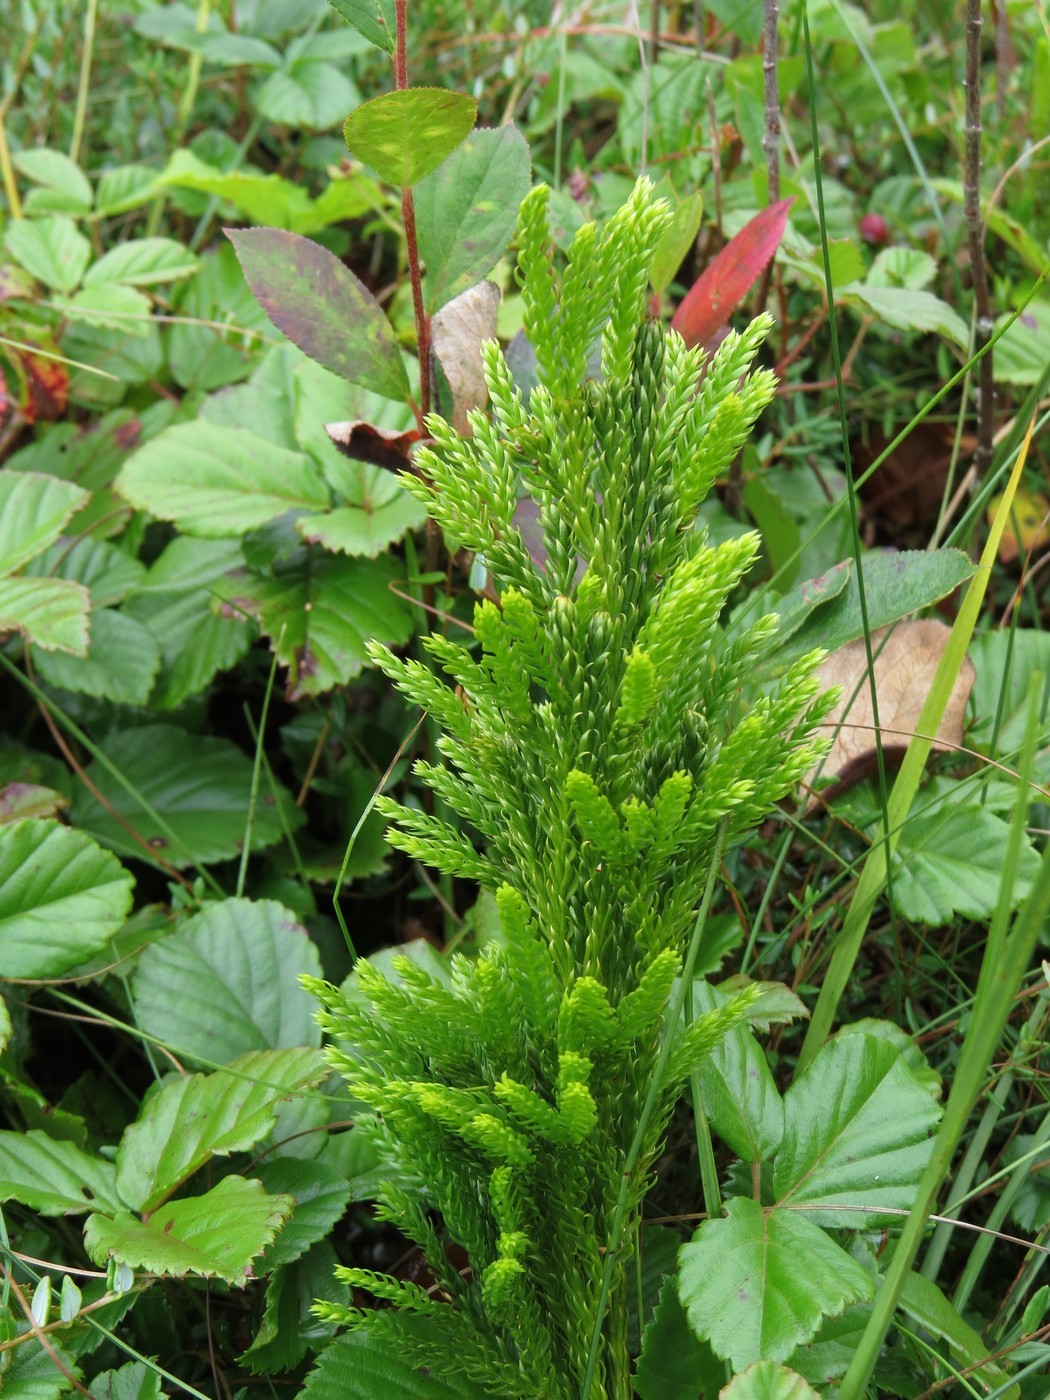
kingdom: Plantae
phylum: Tracheophyta
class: Lycopodiopsida
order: Lycopodiales
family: Lycopodiaceae
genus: Dendrolycopodium
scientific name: Dendrolycopodium hickeyi
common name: Hickey's clubmoss
